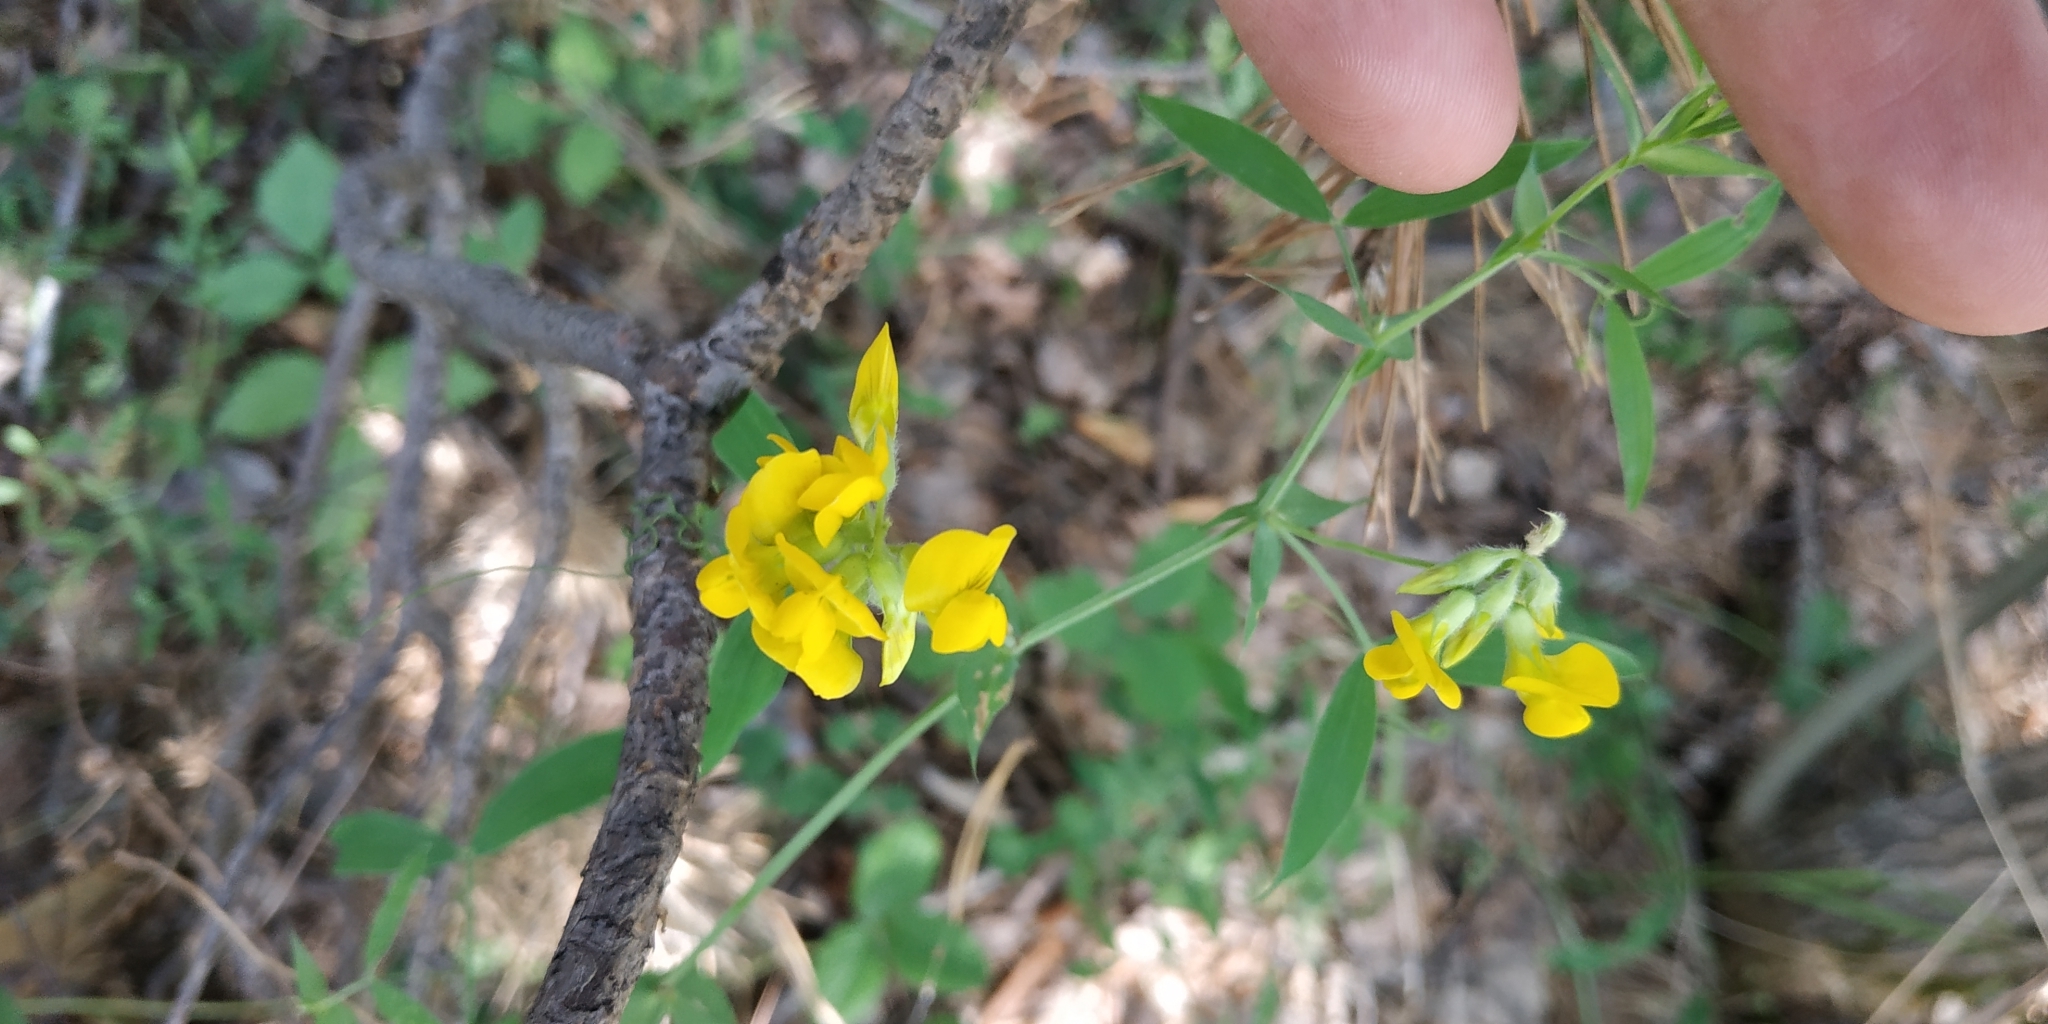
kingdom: Plantae
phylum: Tracheophyta
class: Magnoliopsida
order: Fabales
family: Fabaceae
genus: Lathyrus
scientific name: Lathyrus pratensis
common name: Meadow vetchling
